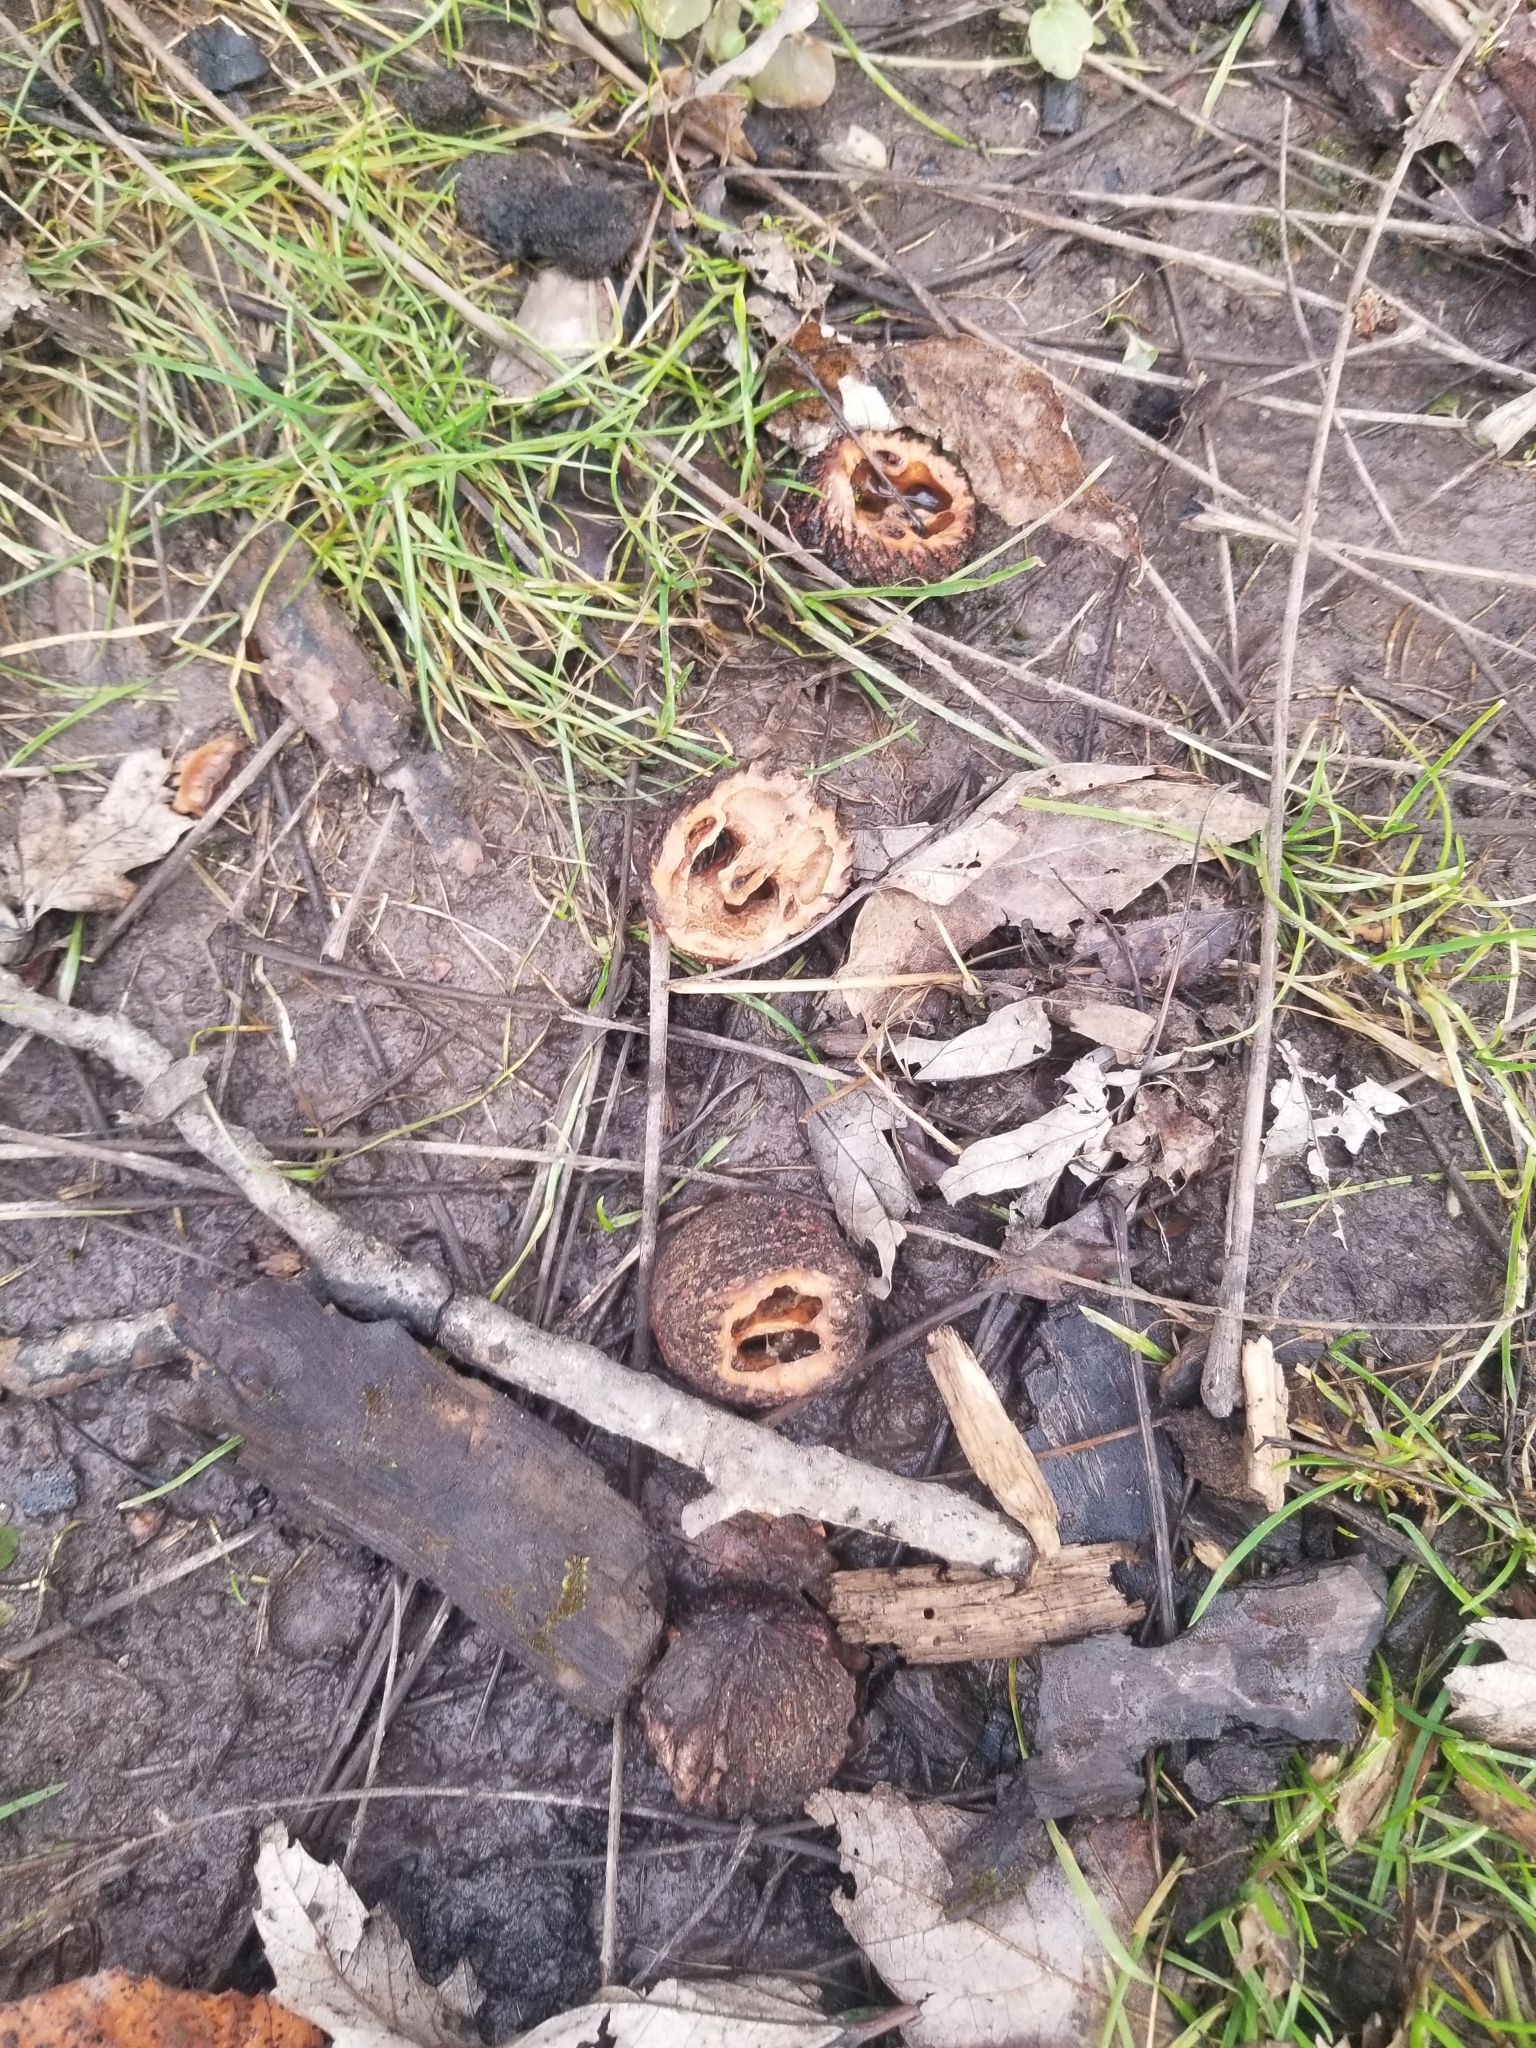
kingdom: Plantae
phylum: Tracheophyta
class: Magnoliopsida
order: Fagales
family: Juglandaceae
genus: Juglans
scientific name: Juglans nigra
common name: Black walnut
